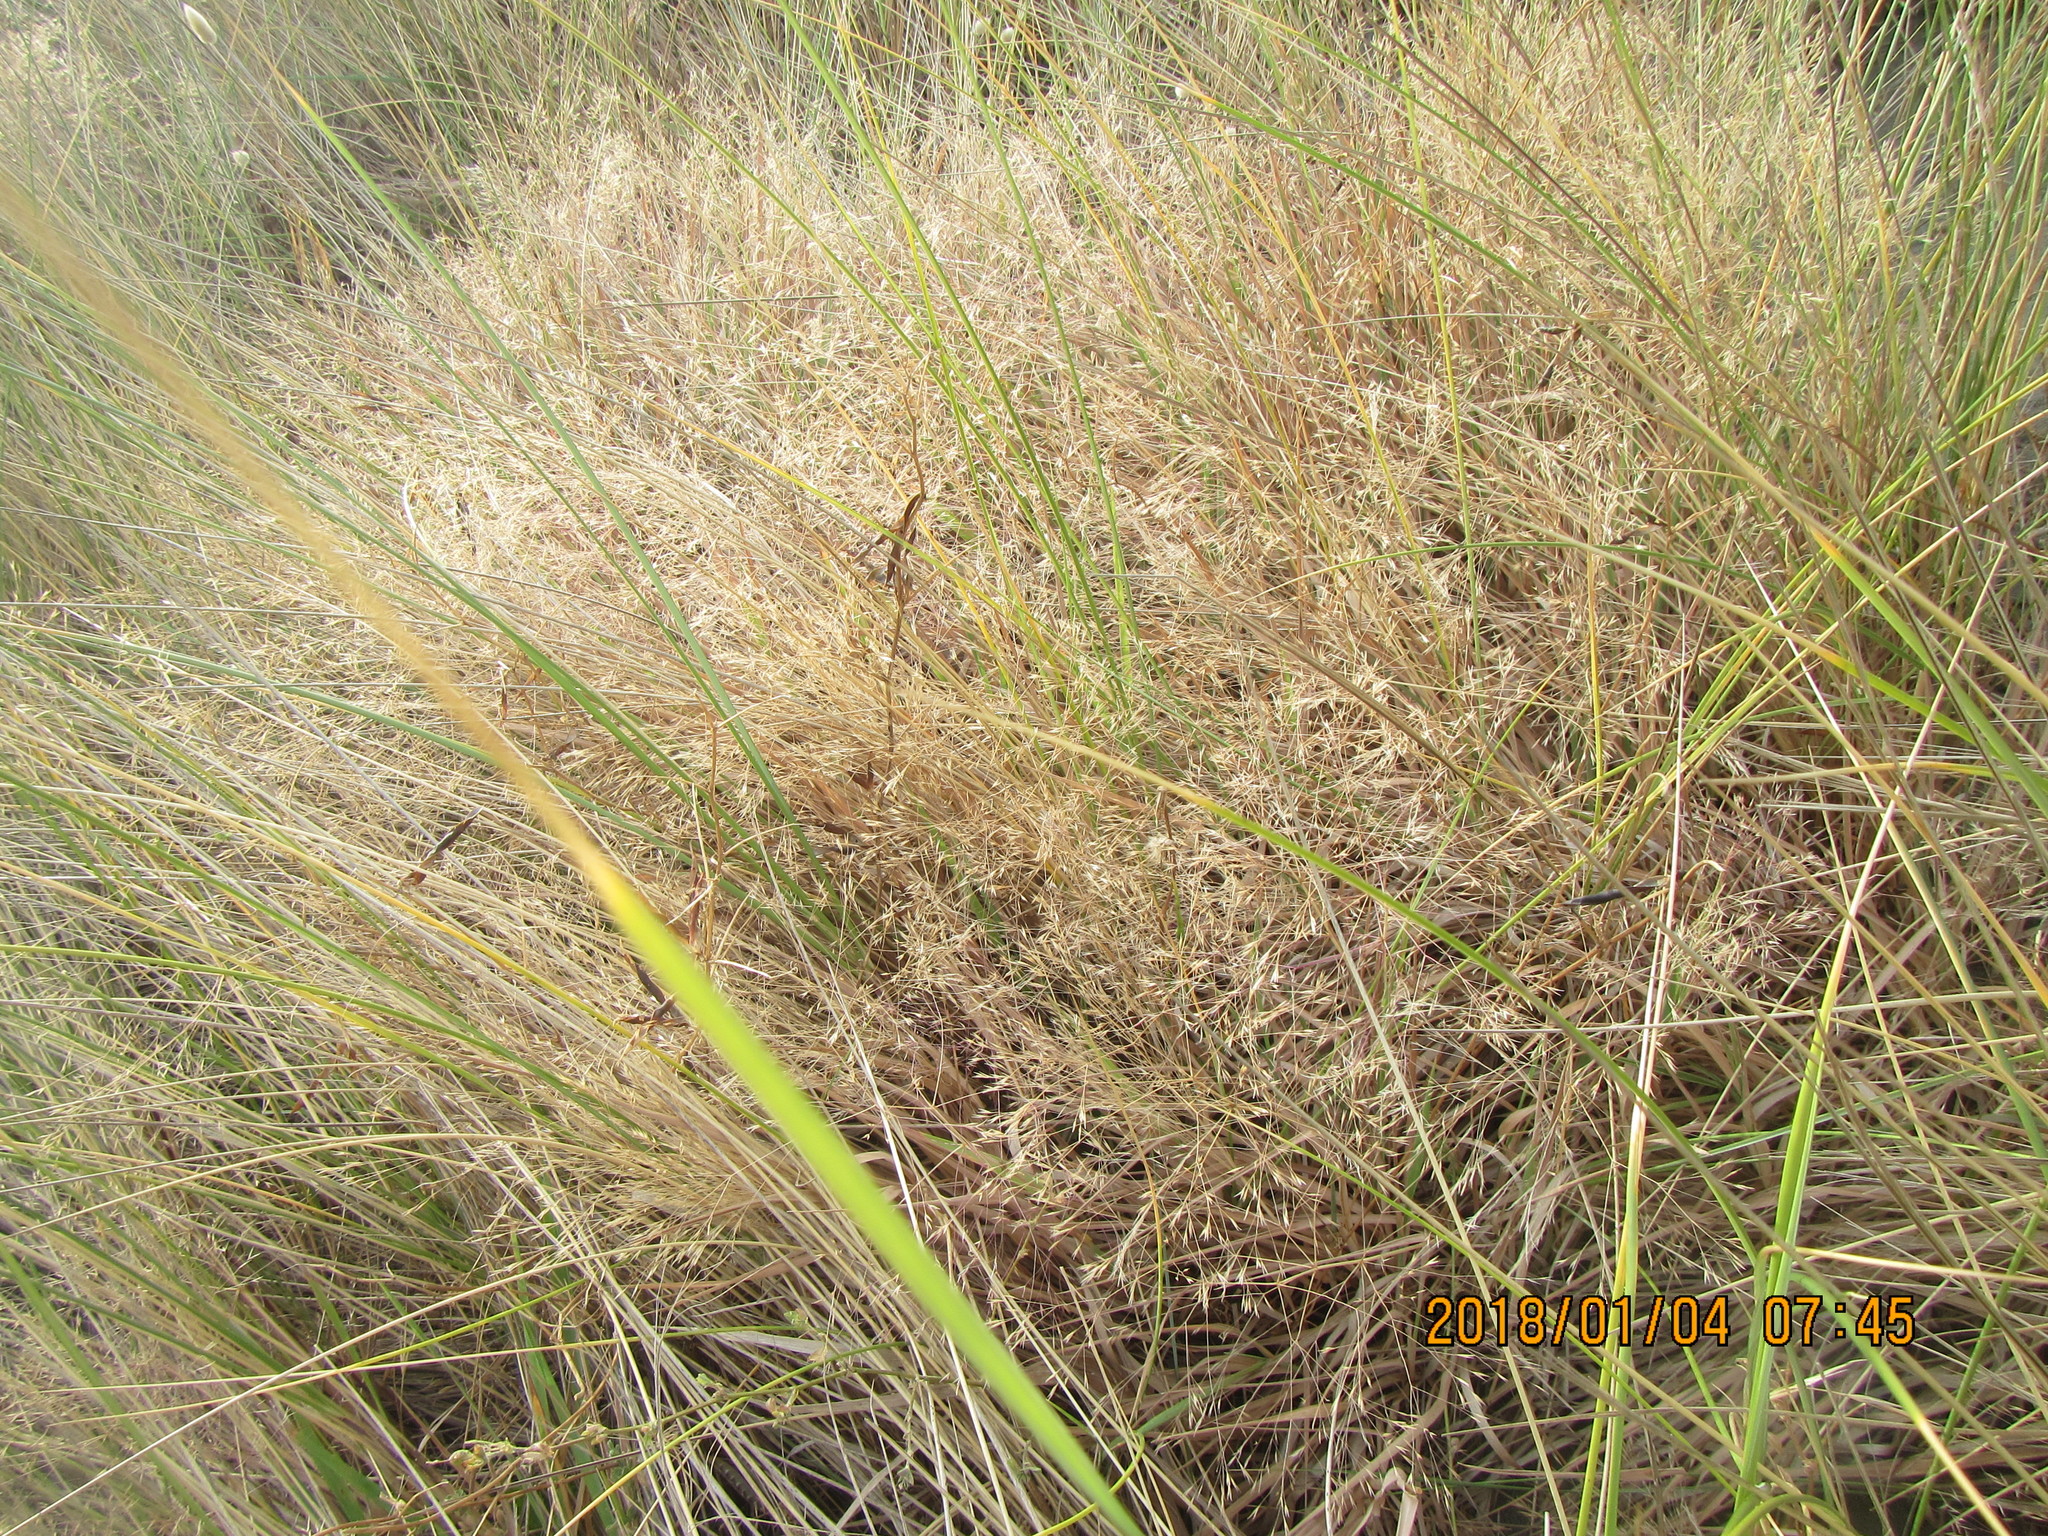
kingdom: Plantae
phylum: Tracheophyta
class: Liliopsida
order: Poales
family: Poaceae
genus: Lachnagrostis
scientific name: Lachnagrostis billardierei
